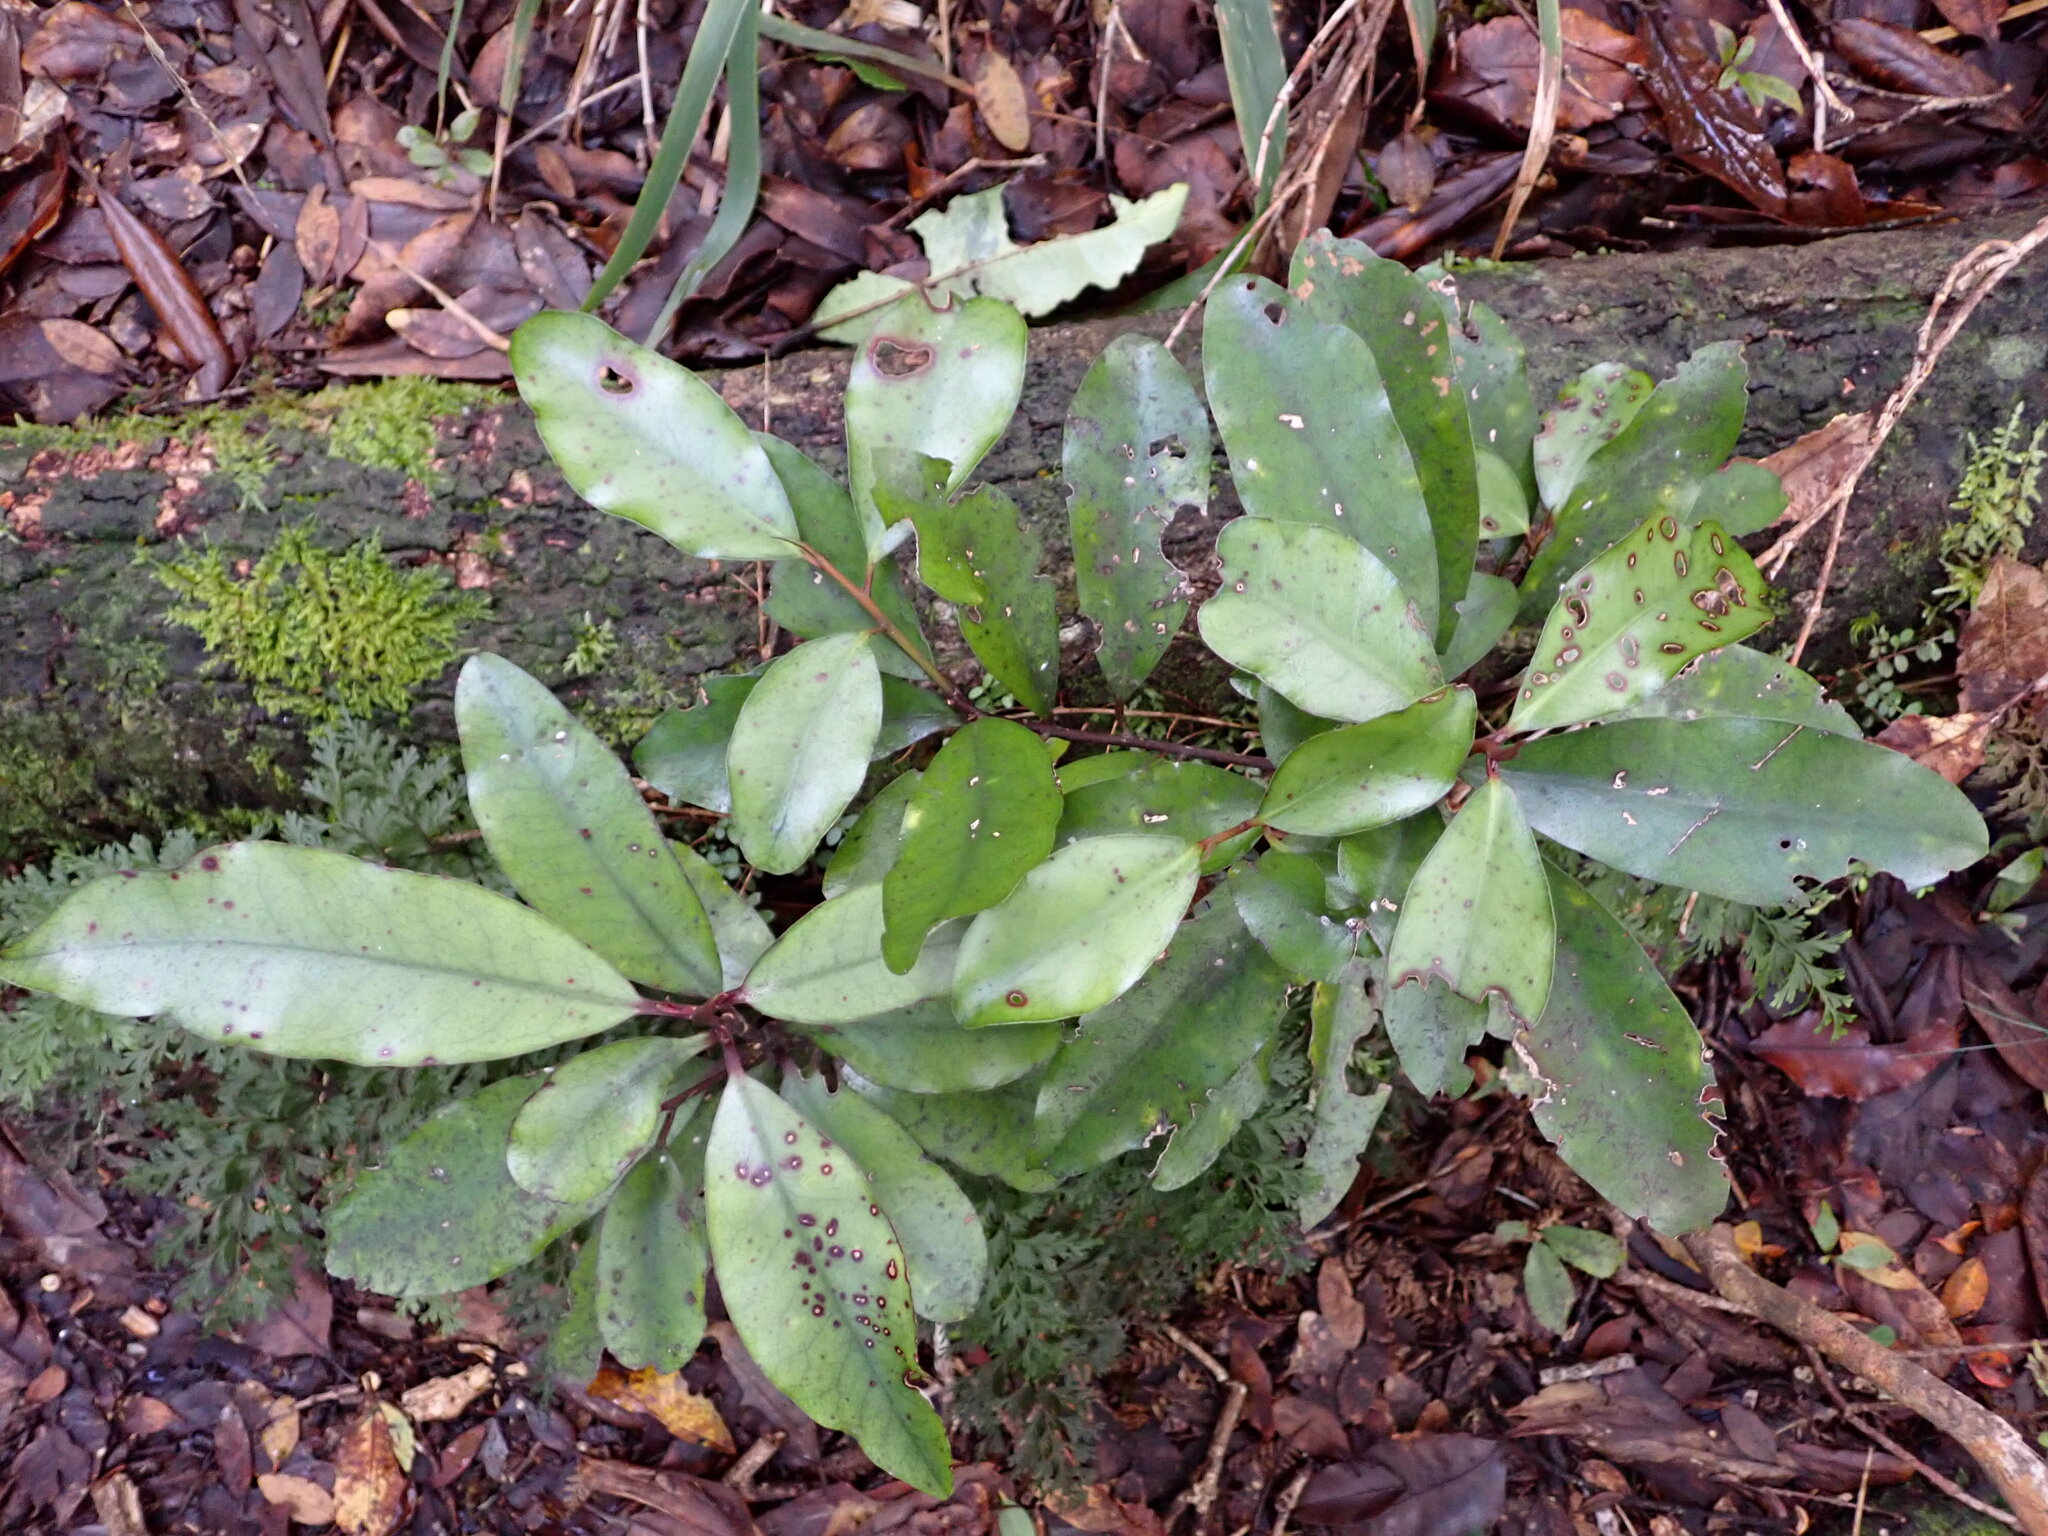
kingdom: Plantae
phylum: Tracheophyta
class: Magnoliopsida
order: Canellales
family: Winteraceae
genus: Pseudowintera
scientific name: Pseudowintera colorata
